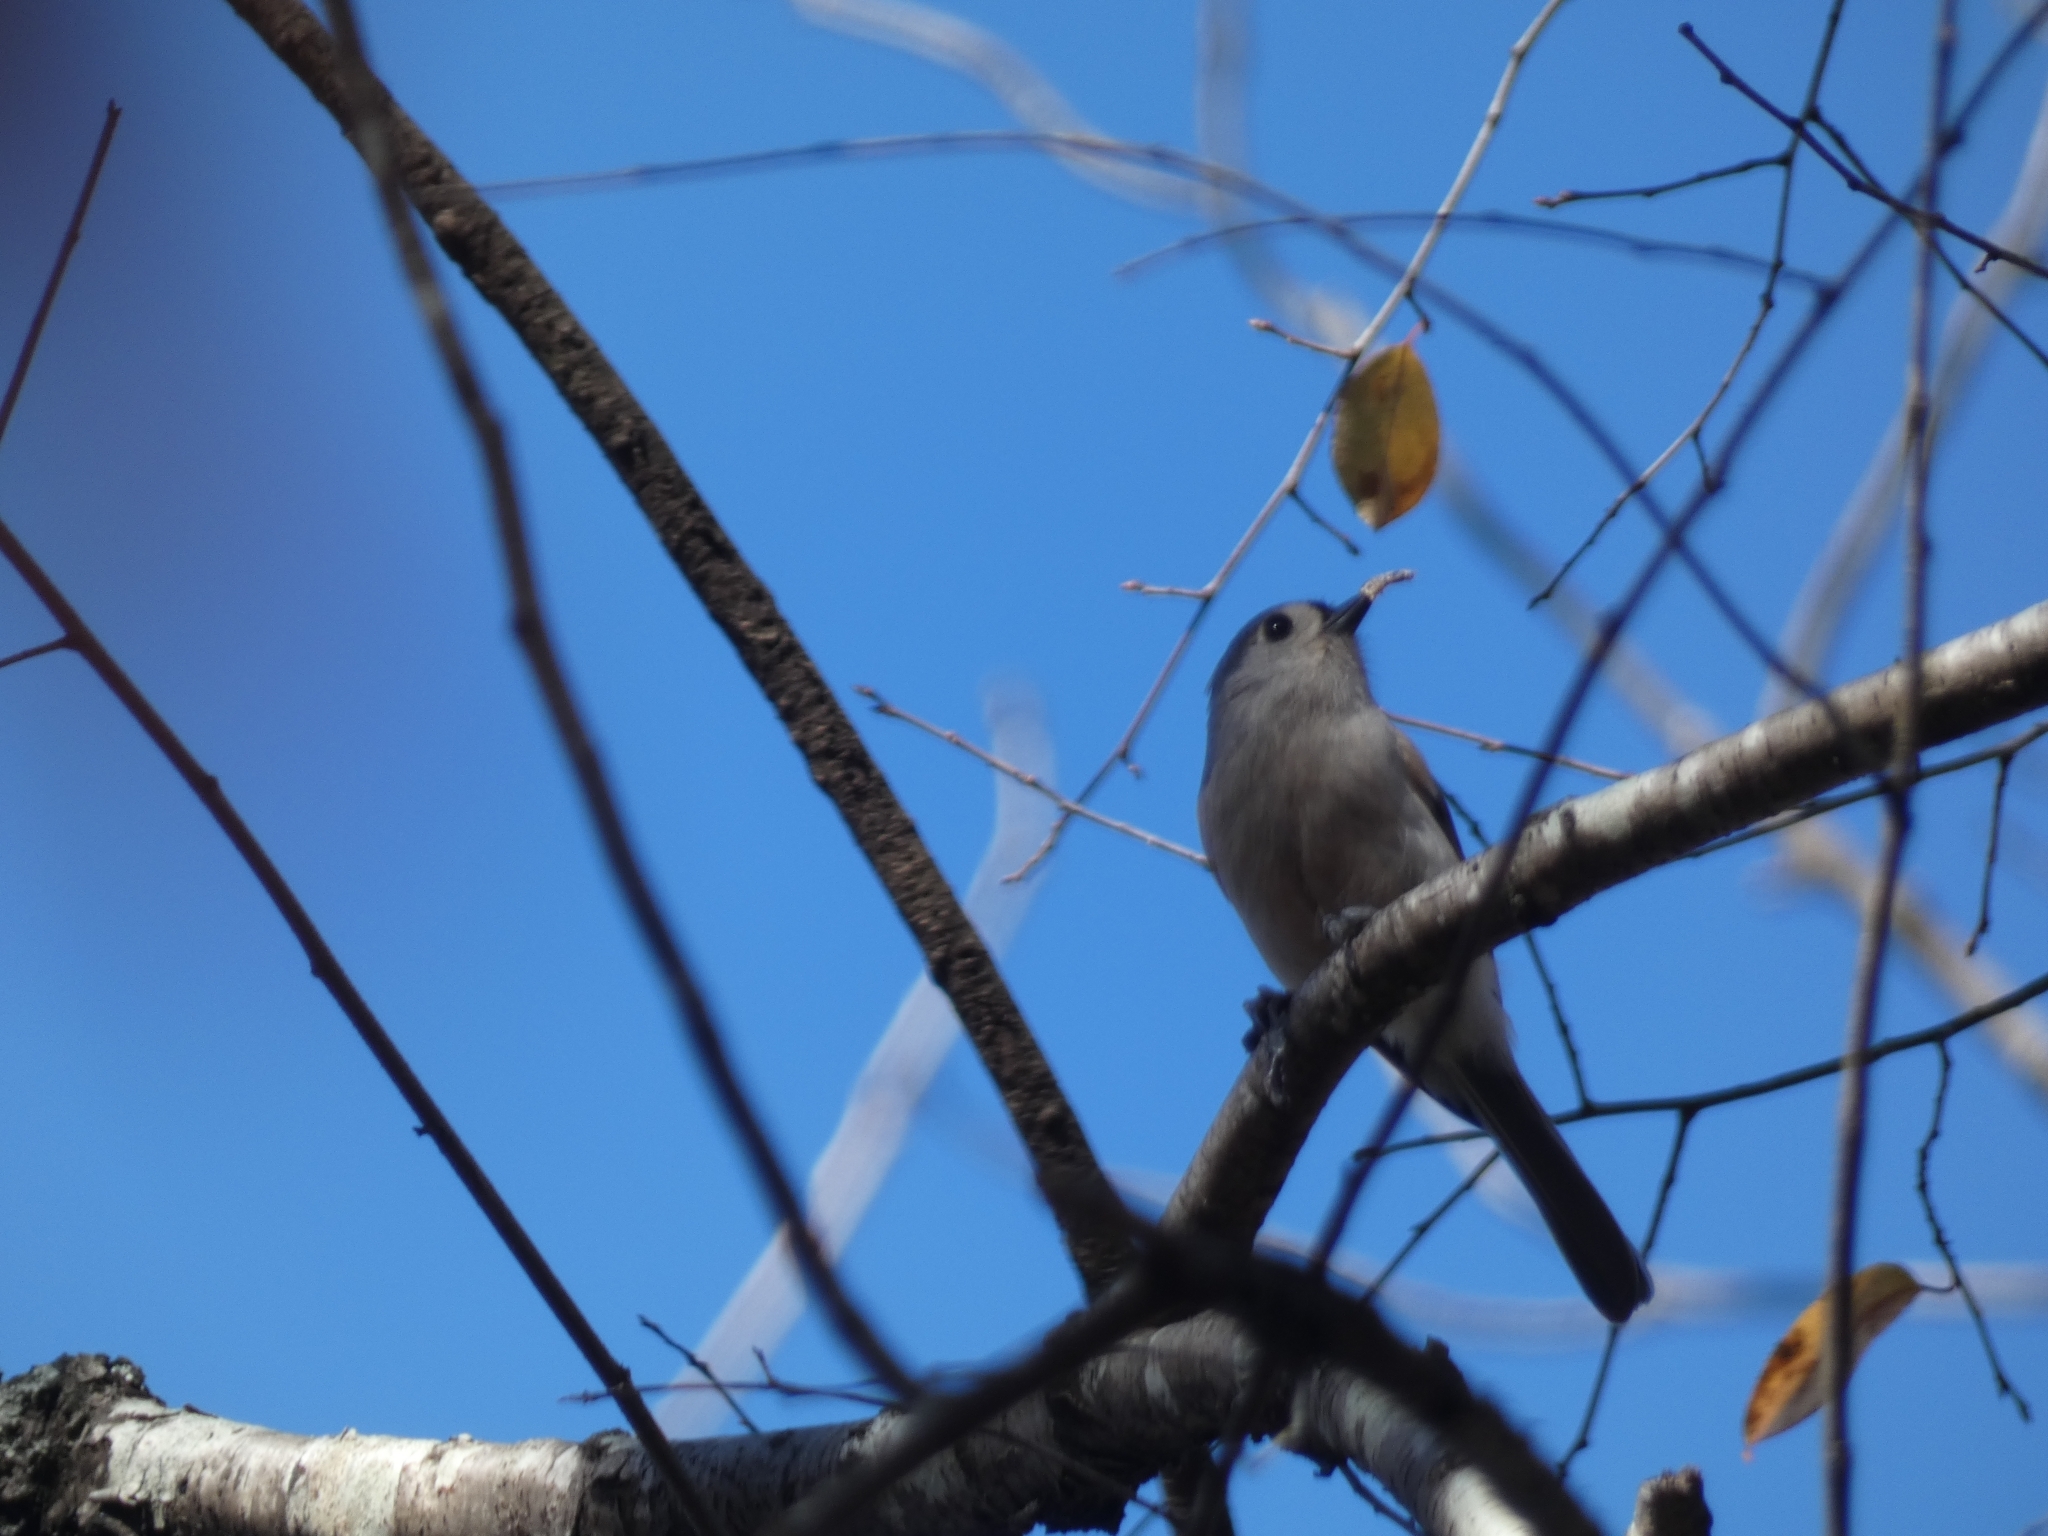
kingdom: Animalia
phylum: Chordata
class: Aves
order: Passeriformes
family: Paridae
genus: Baeolophus
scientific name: Baeolophus bicolor
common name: Tufted titmouse
